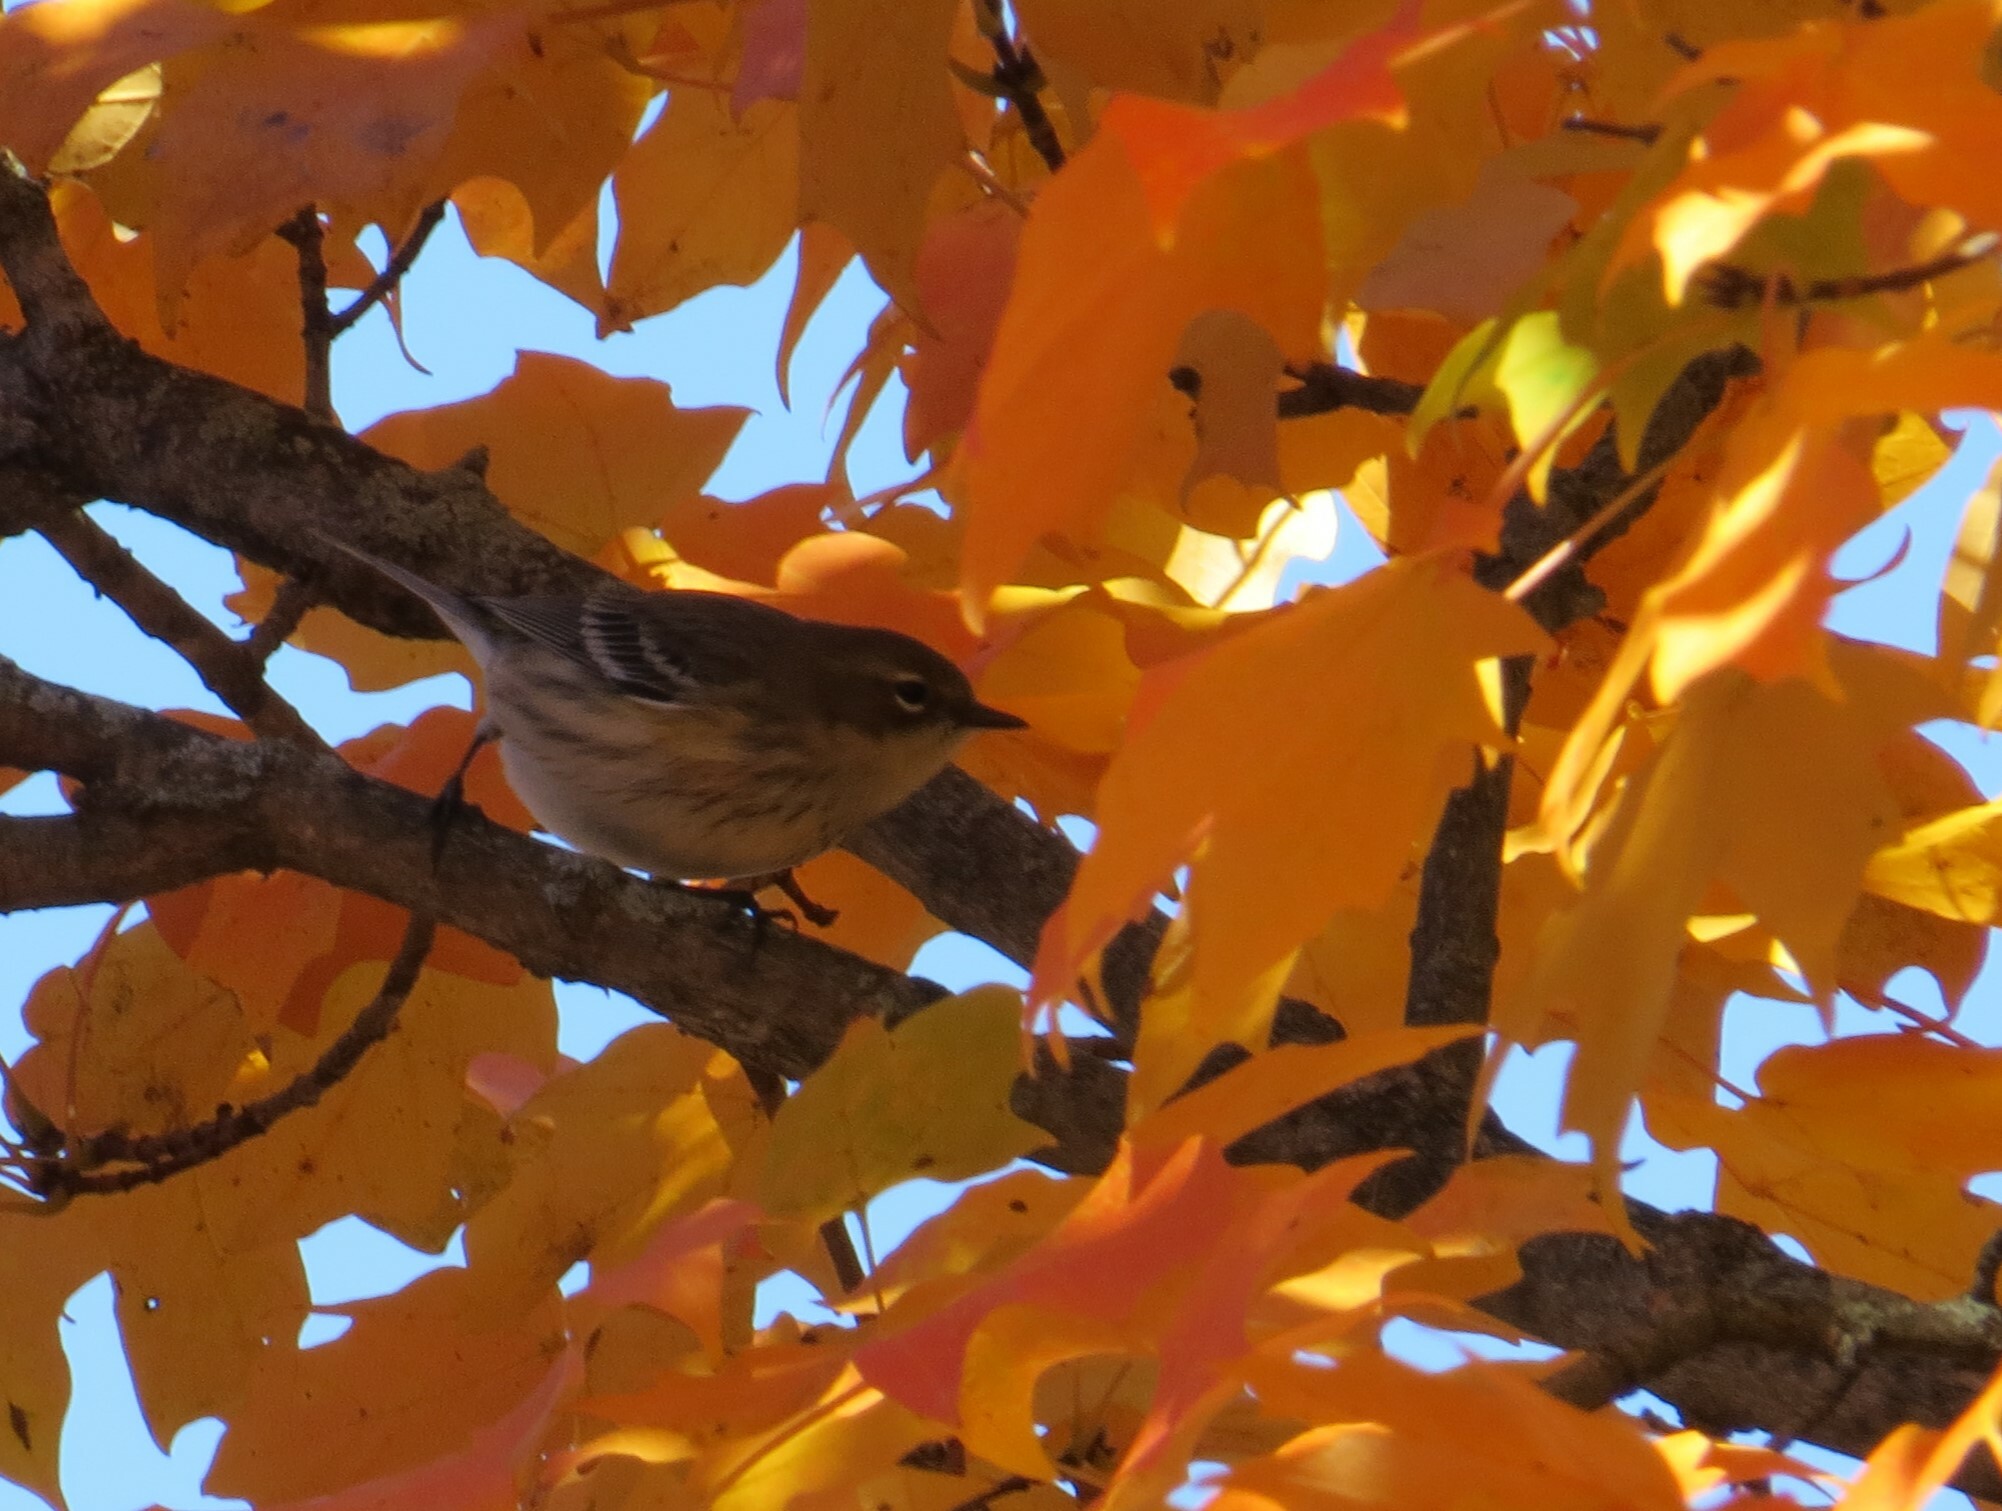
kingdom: Animalia
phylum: Chordata
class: Aves
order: Passeriformes
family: Parulidae
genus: Setophaga
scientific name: Setophaga coronata
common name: Myrtle warbler
